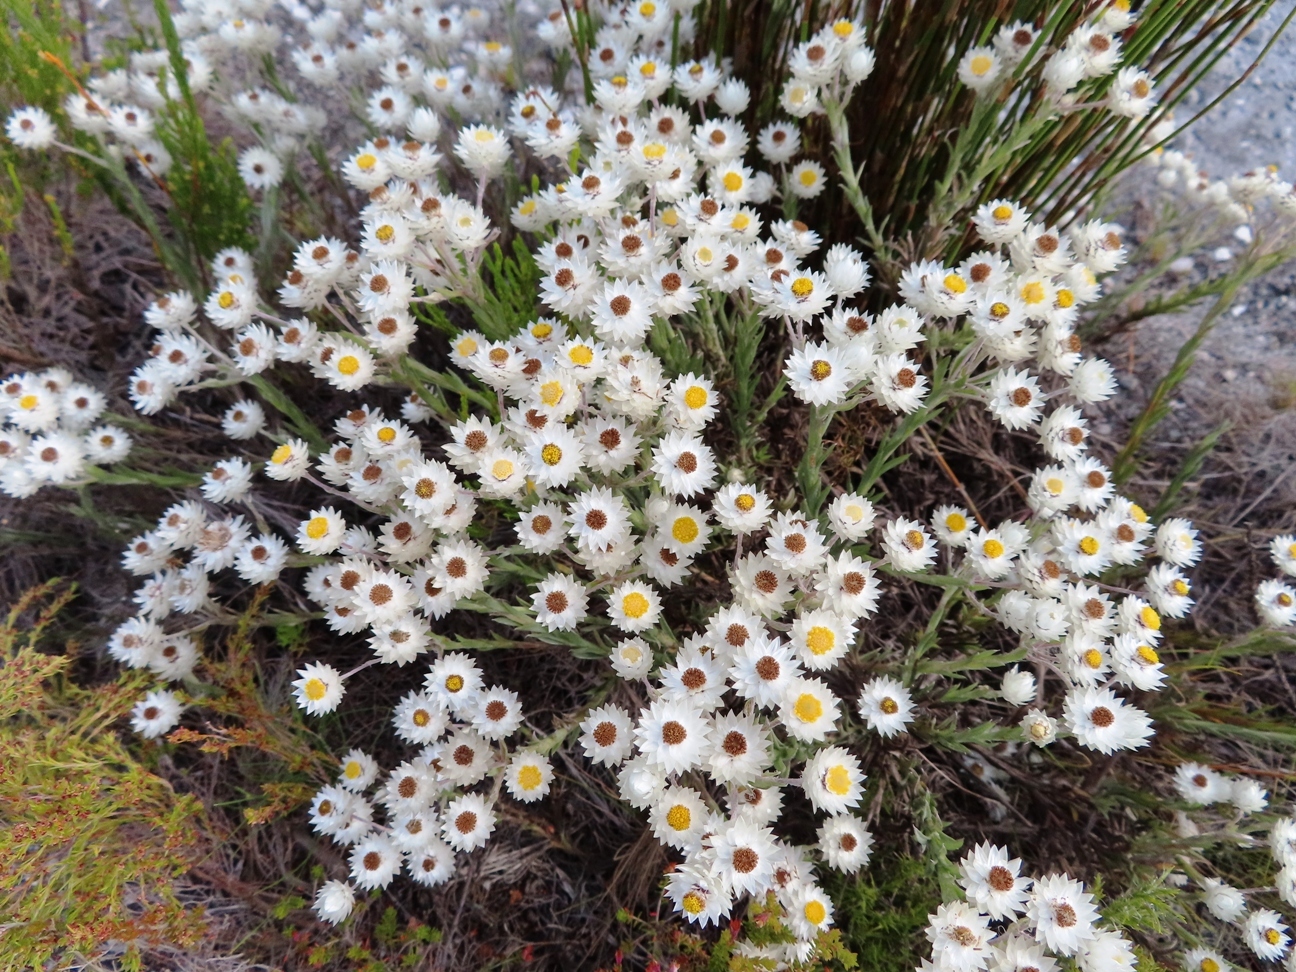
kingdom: Plantae
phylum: Tracheophyta
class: Magnoliopsida
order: Asterales
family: Asteraceae
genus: Achyranthemum
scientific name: Achyranthemum paniculatum
